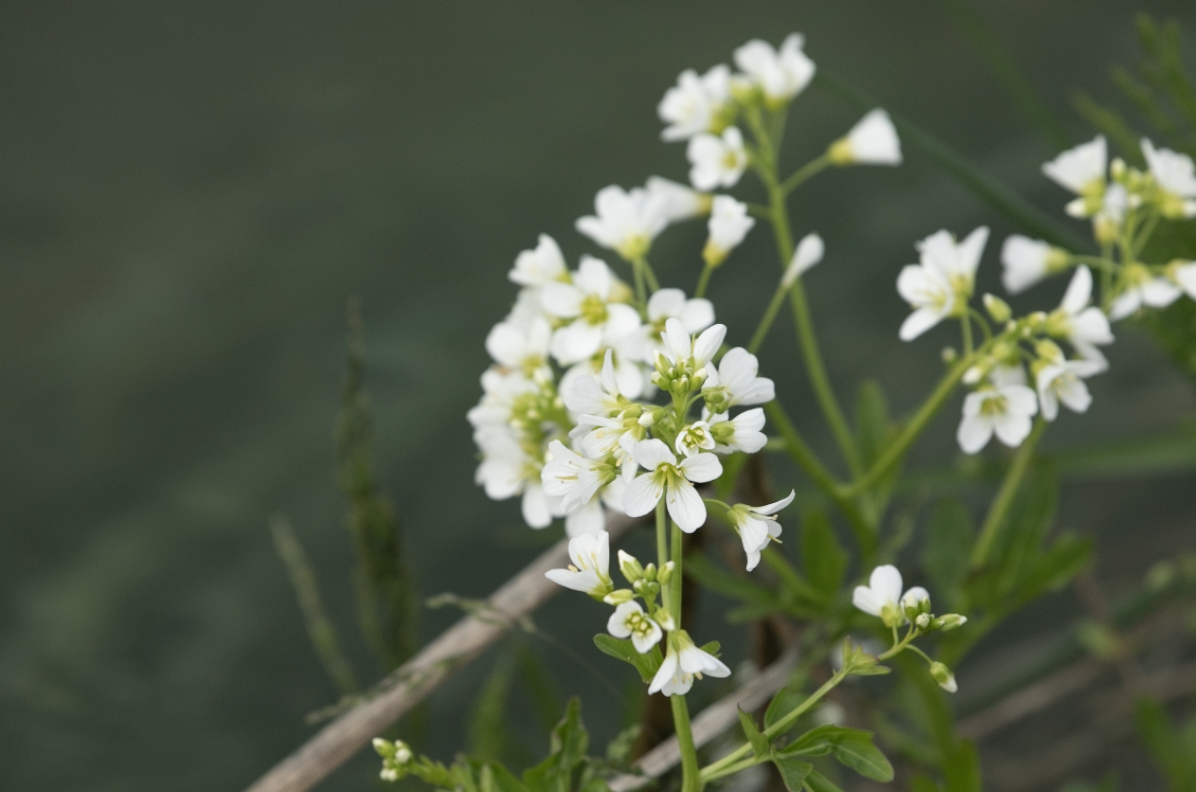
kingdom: Plantae
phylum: Tracheophyta
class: Magnoliopsida
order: Brassicales
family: Brassicaceae
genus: Cardamine
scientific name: Cardamine amara
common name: Large bitter-cress
